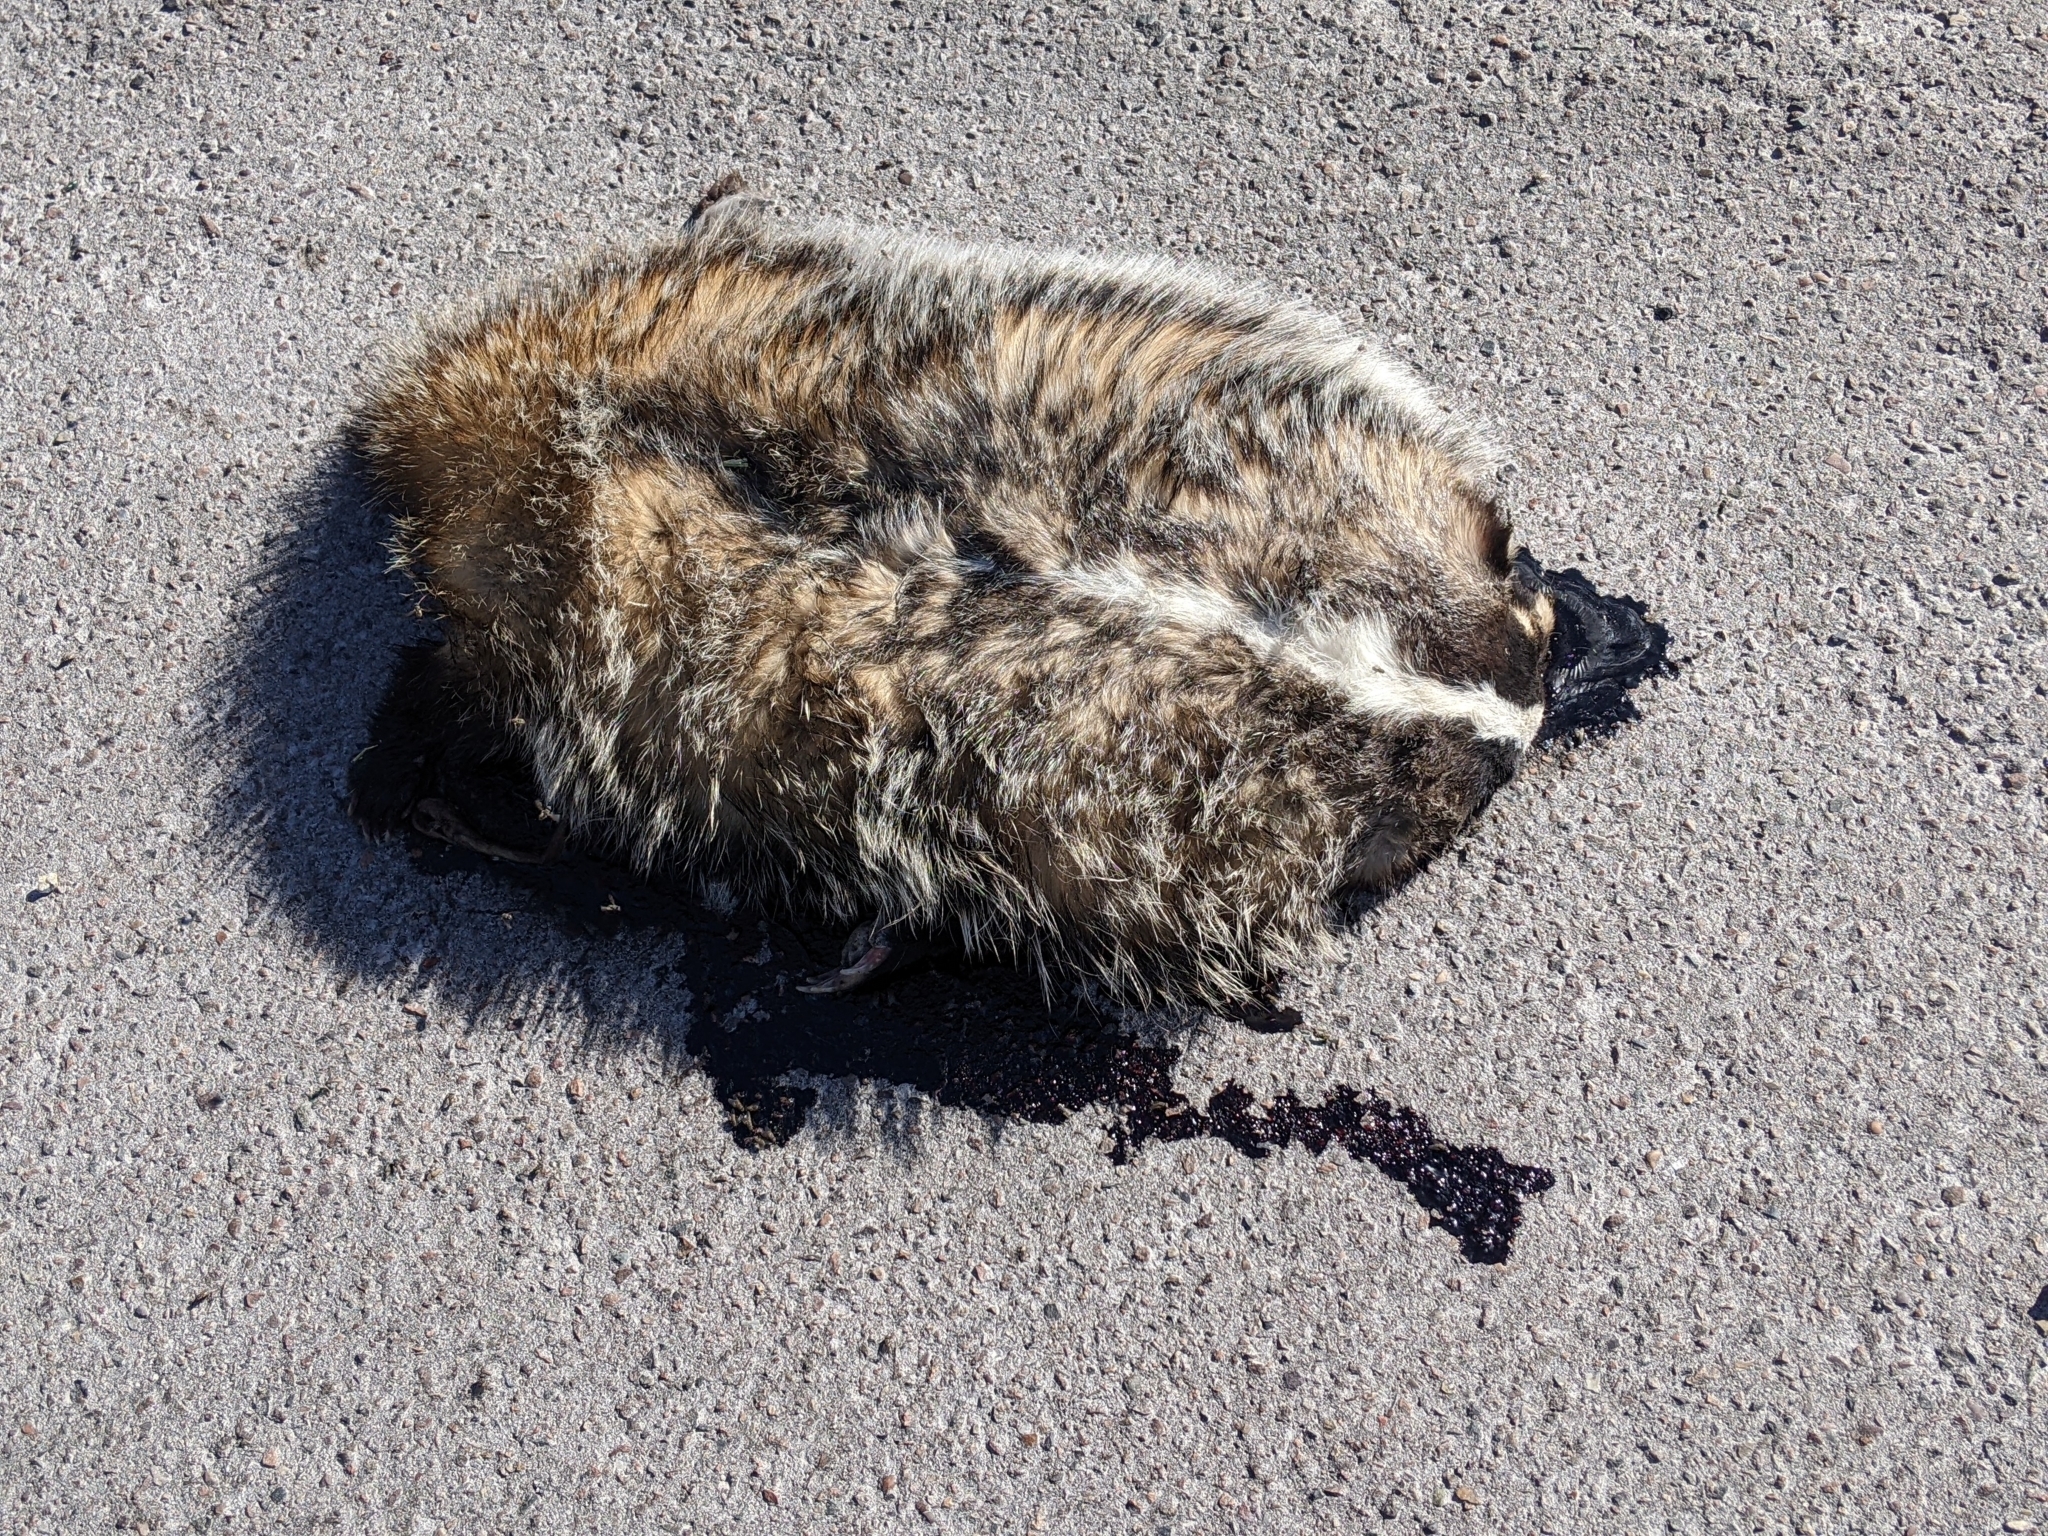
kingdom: Animalia
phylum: Chordata
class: Mammalia
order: Carnivora
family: Mustelidae
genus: Taxidea
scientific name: Taxidea taxus
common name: American badger
